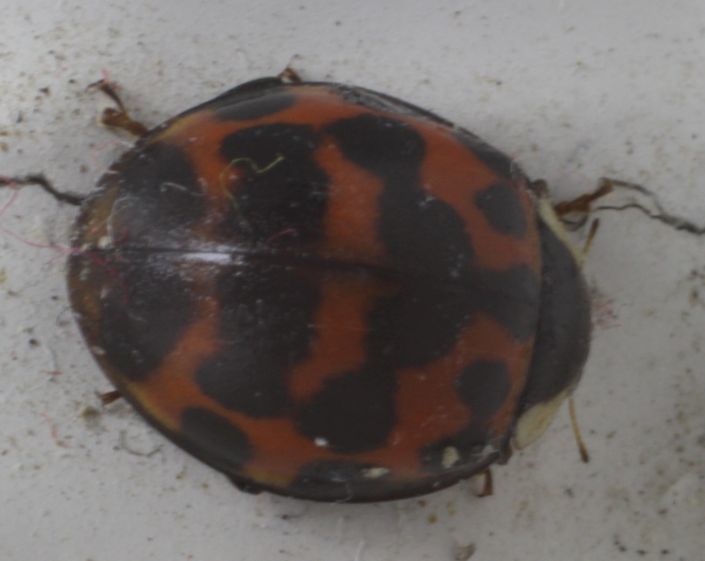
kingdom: Animalia
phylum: Arthropoda
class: Insecta
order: Coleoptera
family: Coccinellidae
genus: Harmonia
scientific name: Harmonia axyridis
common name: Harlequin ladybird
